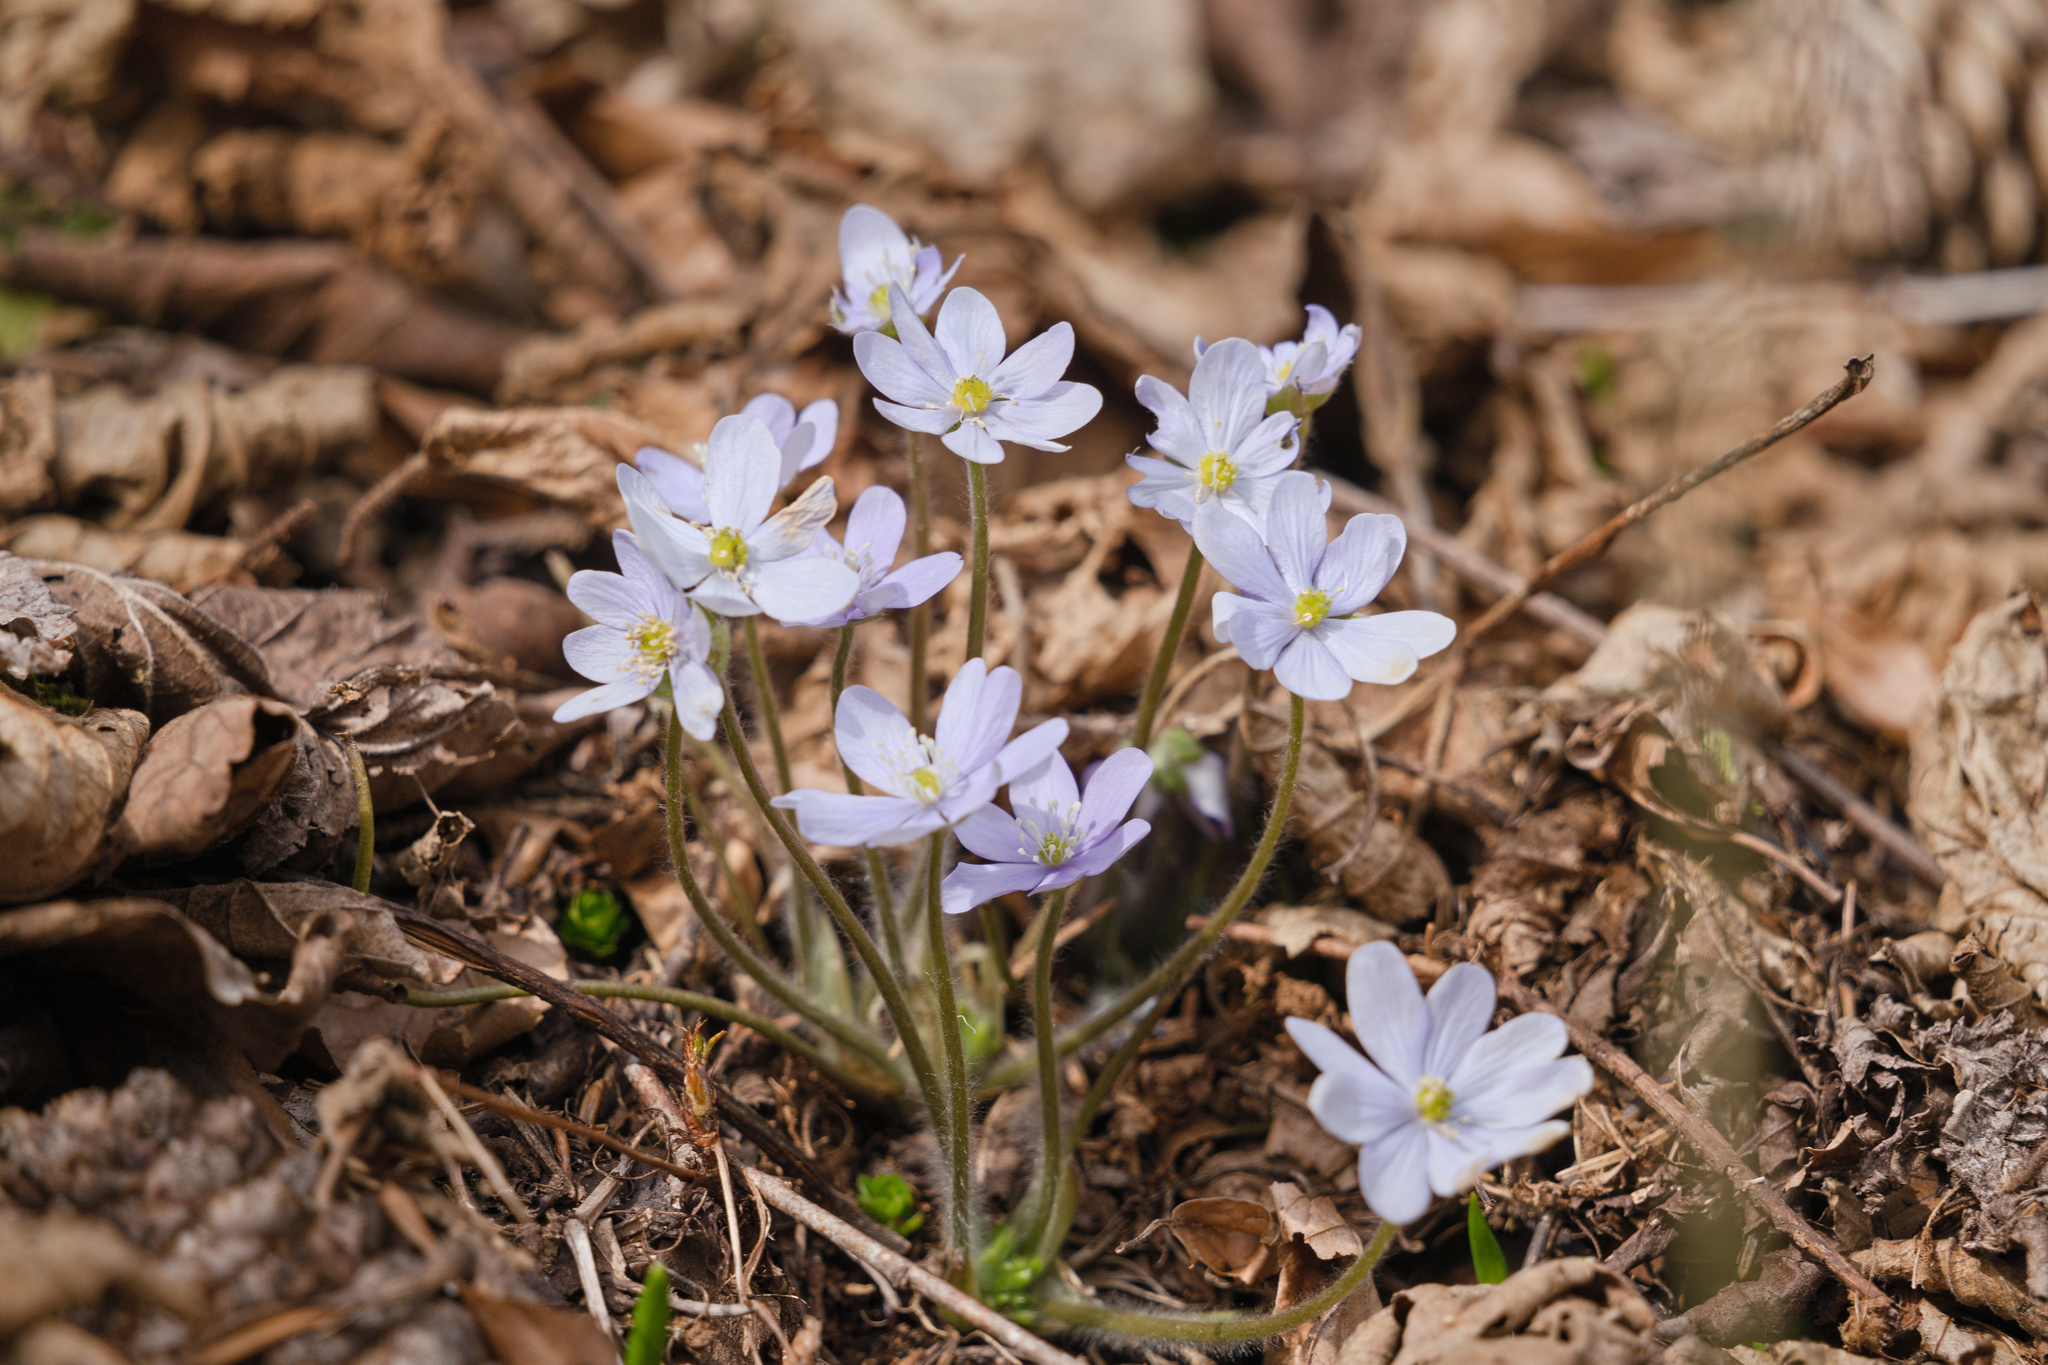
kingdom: Plantae
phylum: Tracheophyta
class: Magnoliopsida
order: Ranunculales
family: Ranunculaceae
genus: Hepatica
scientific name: Hepatica nobilis
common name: Liverleaf
